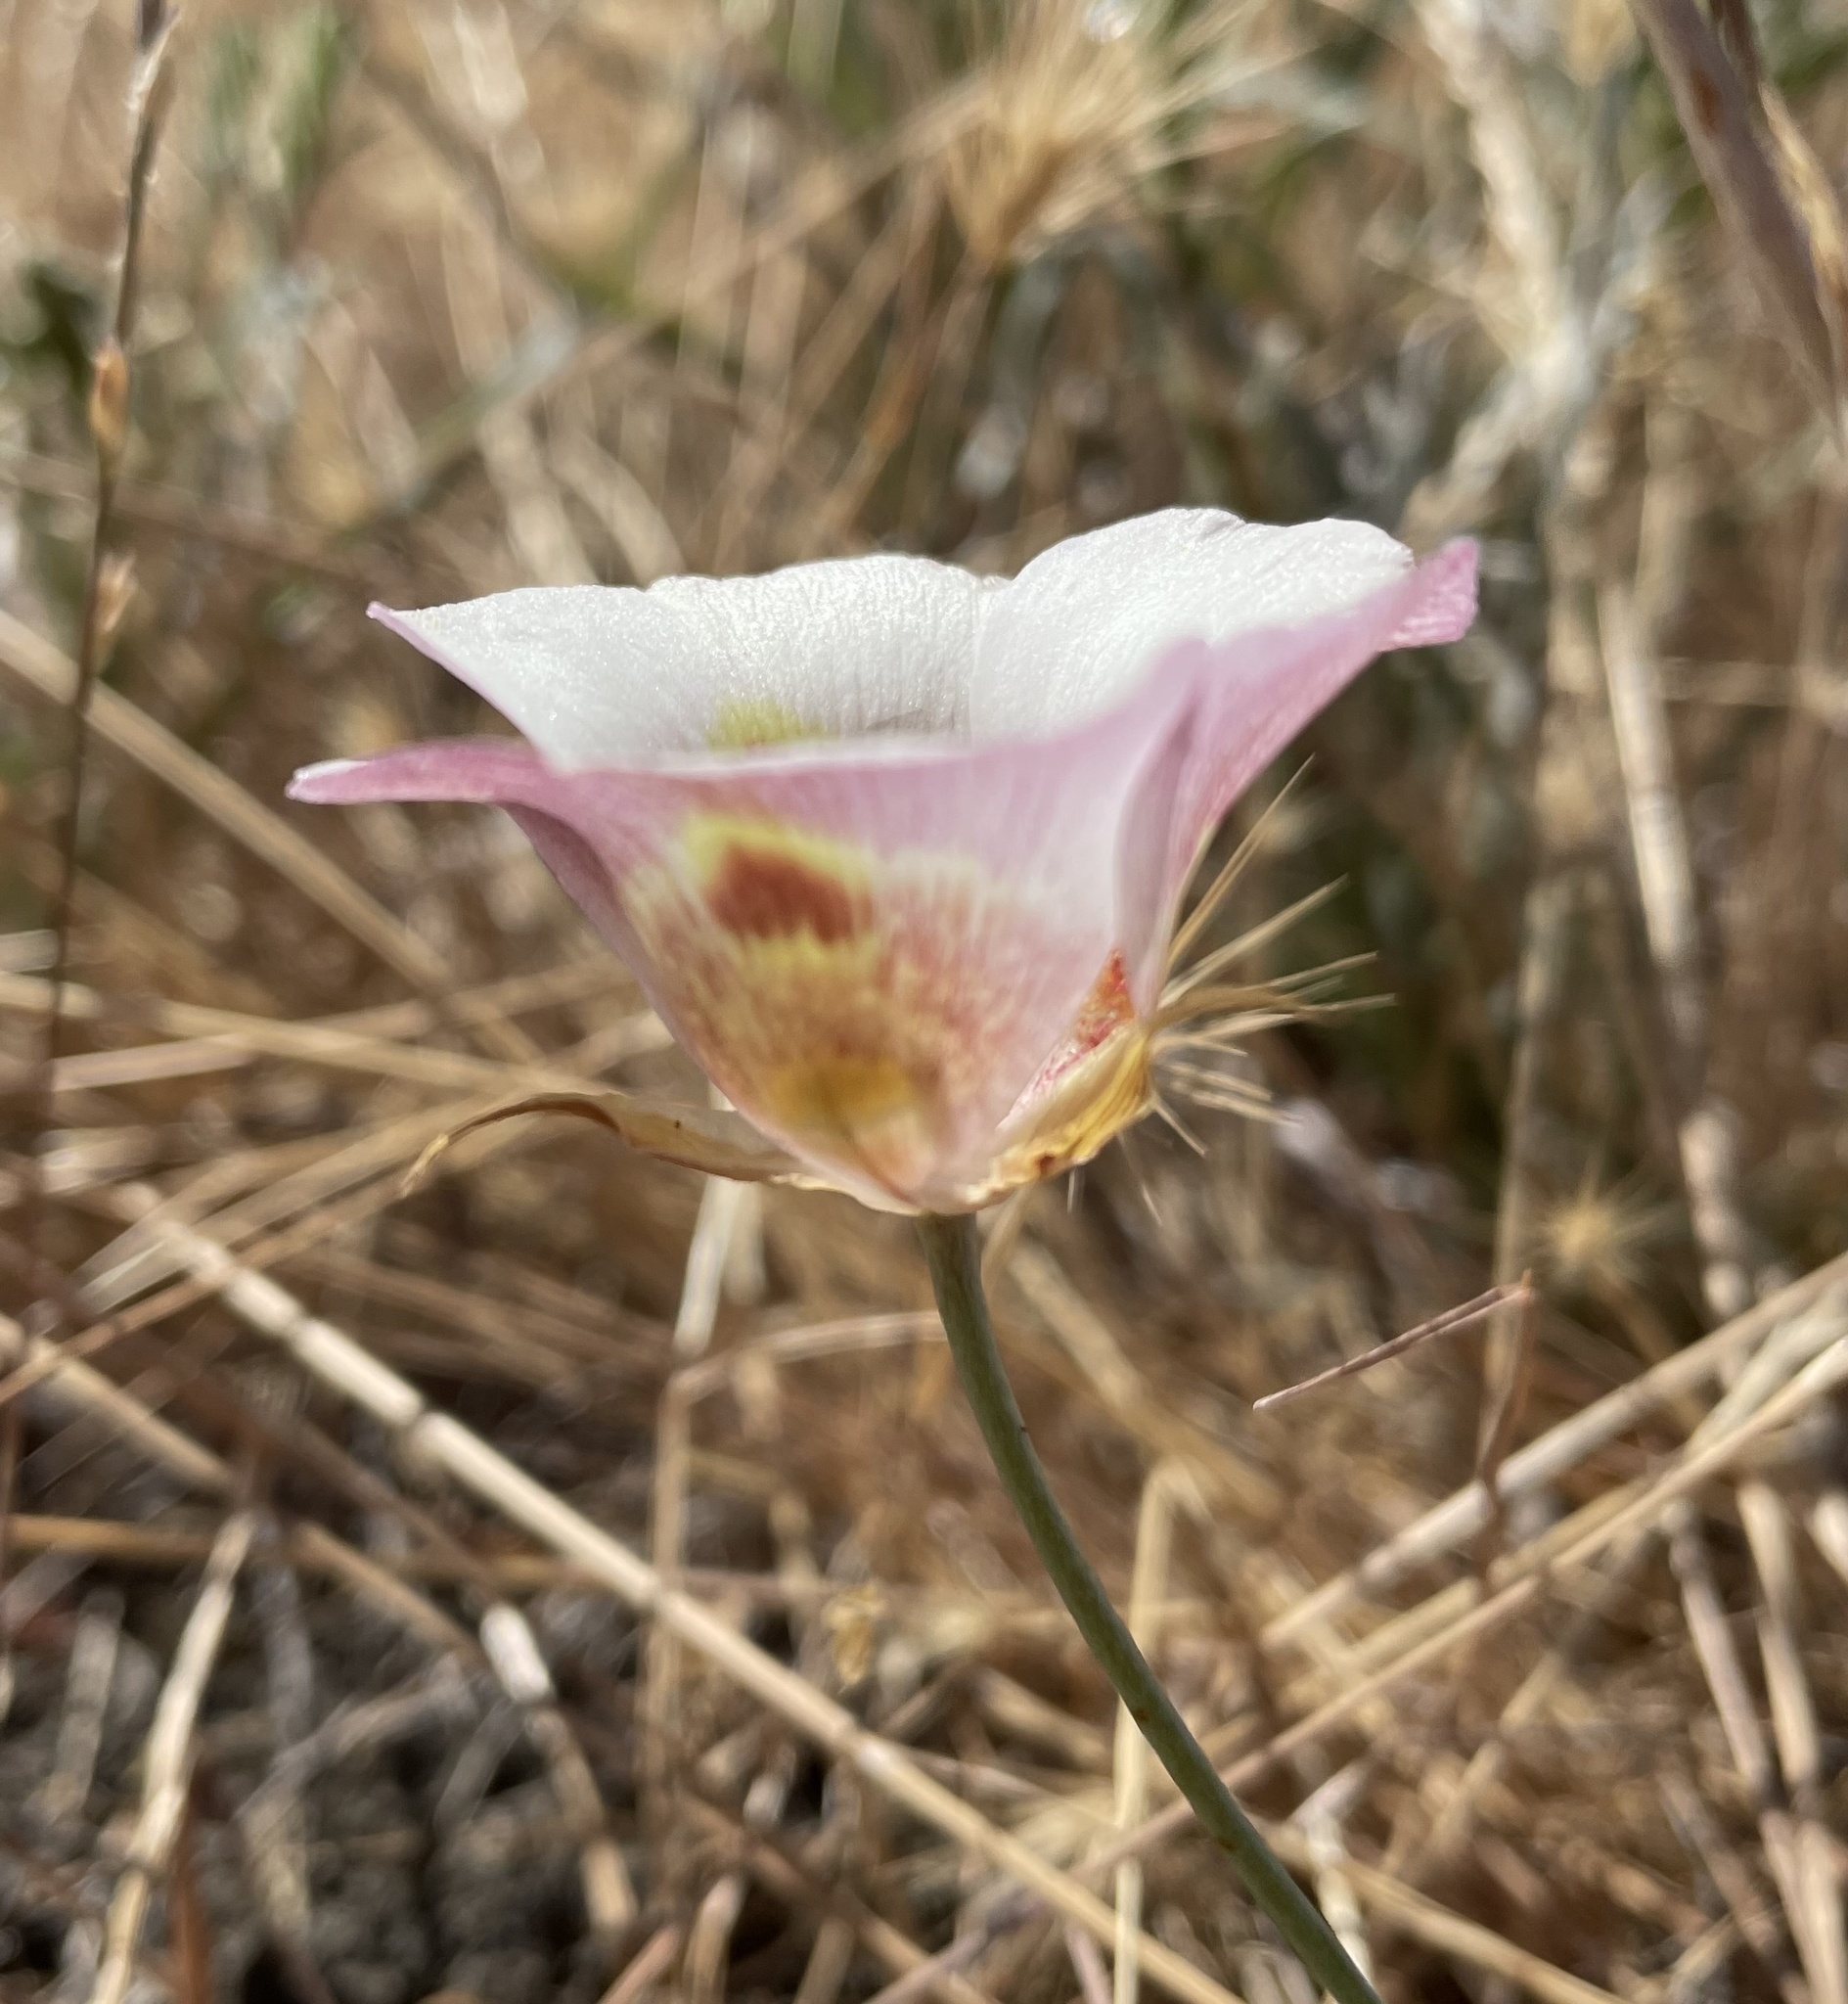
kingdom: Plantae
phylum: Tracheophyta
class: Liliopsida
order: Liliales
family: Liliaceae
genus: Calochortus
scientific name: Calochortus argillosus
